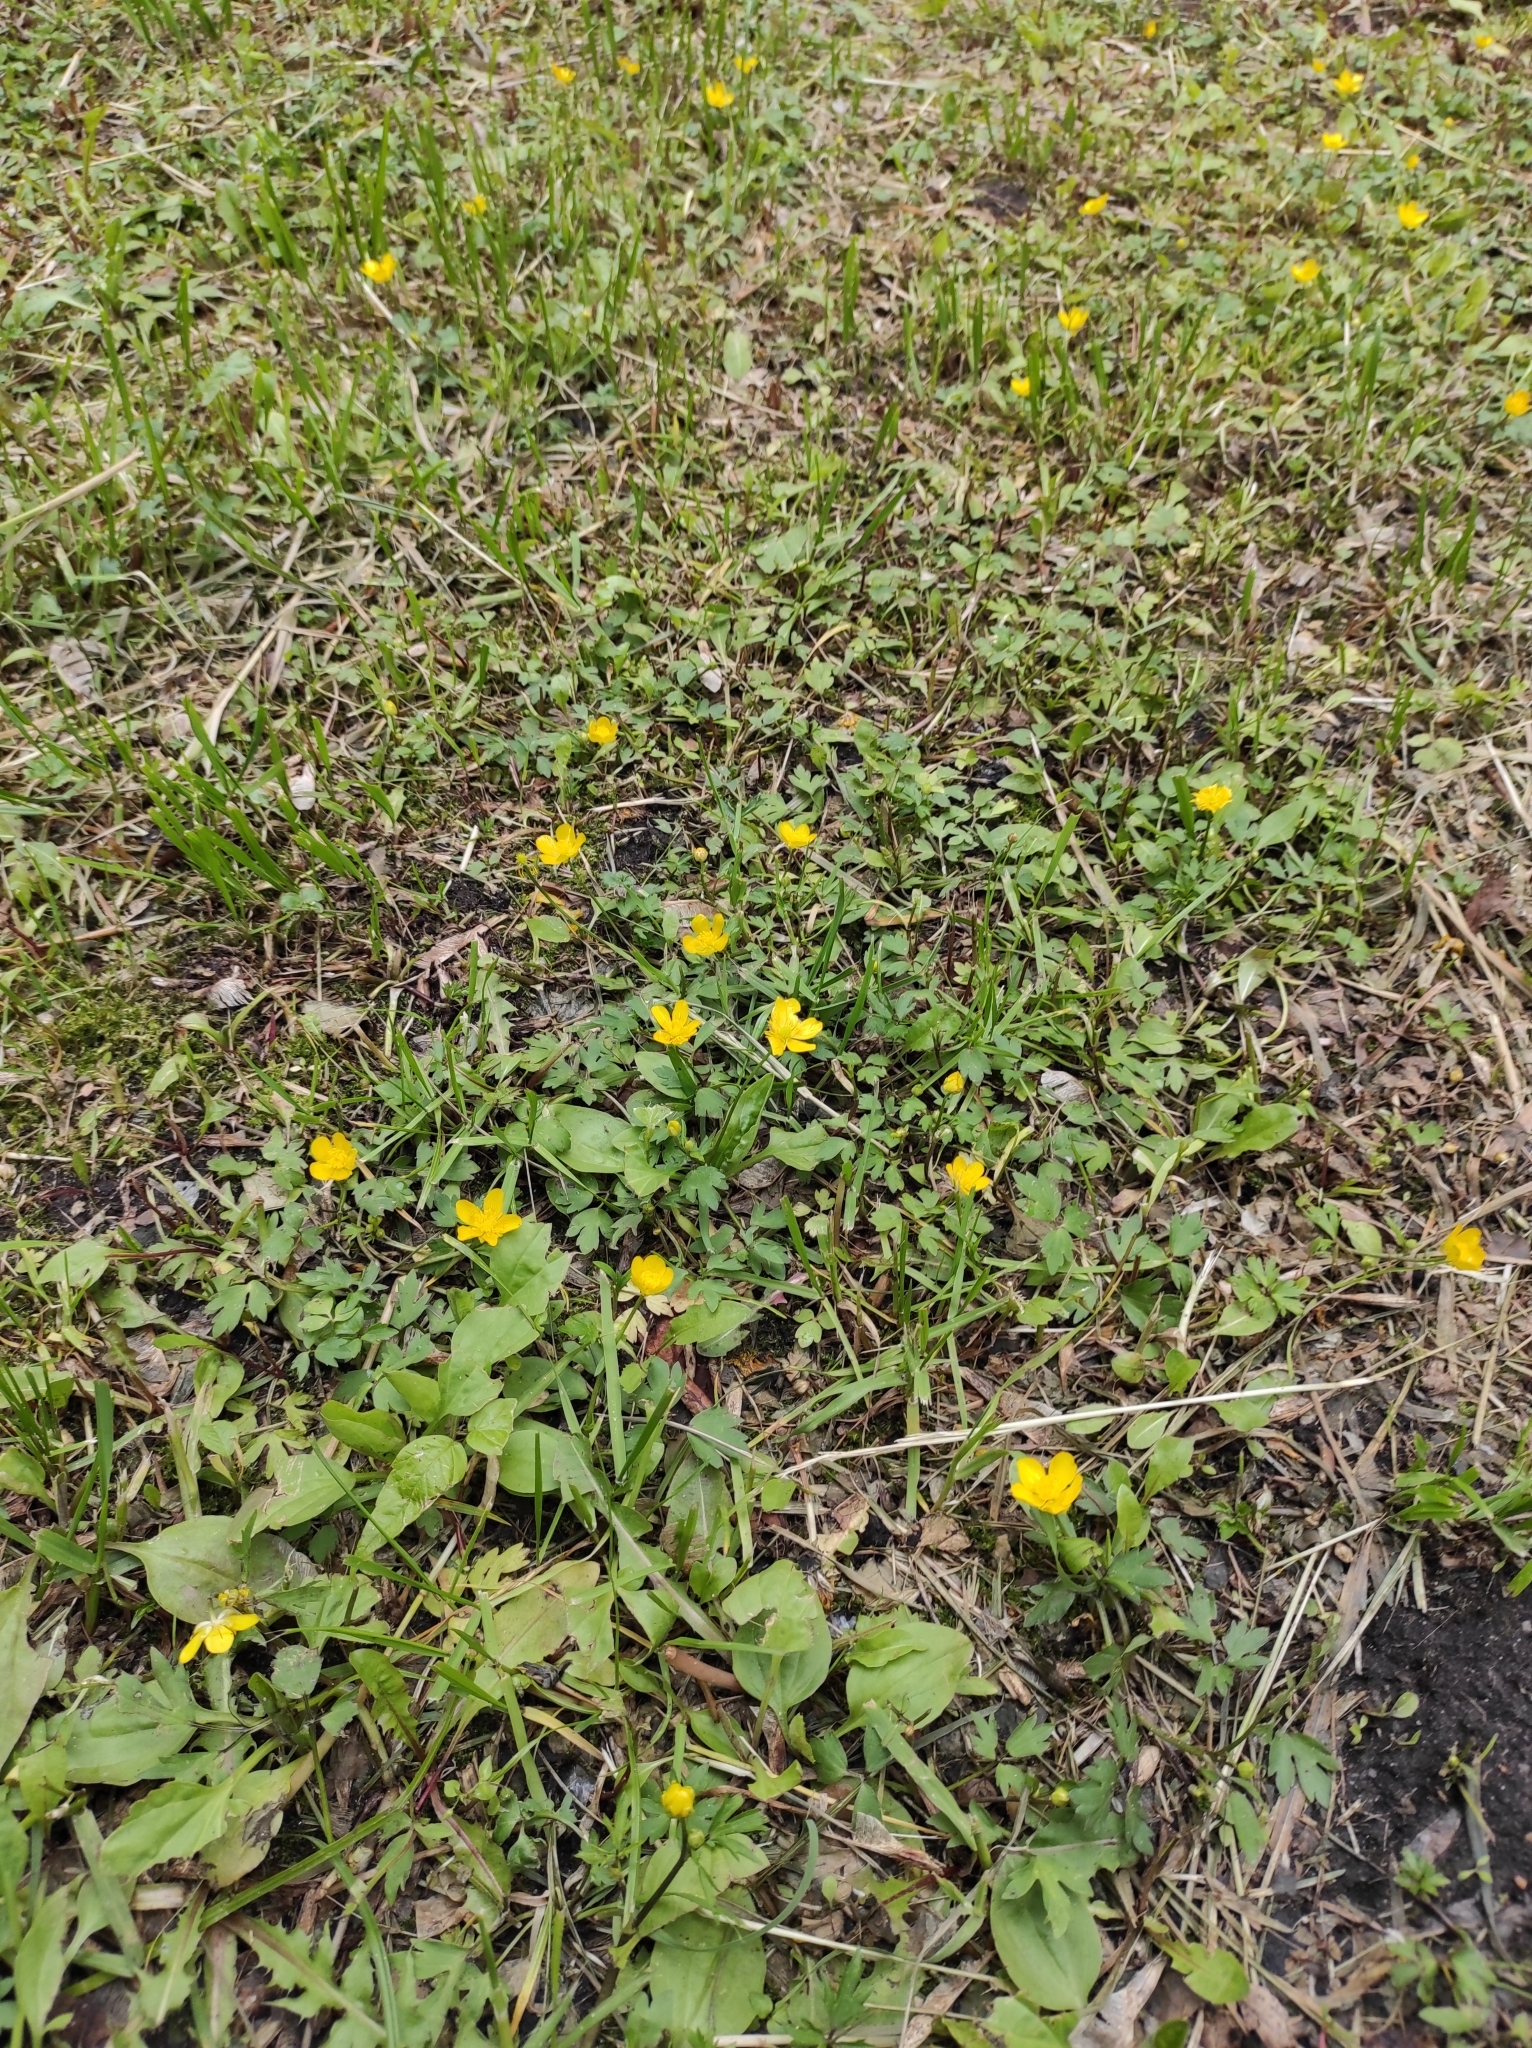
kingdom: Plantae
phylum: Tracheophyta
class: Magnoliopsida
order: Ranunculales
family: Ranunculaceae
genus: Ranunculus
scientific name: Ranunculus repens
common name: Creeping buttercup
